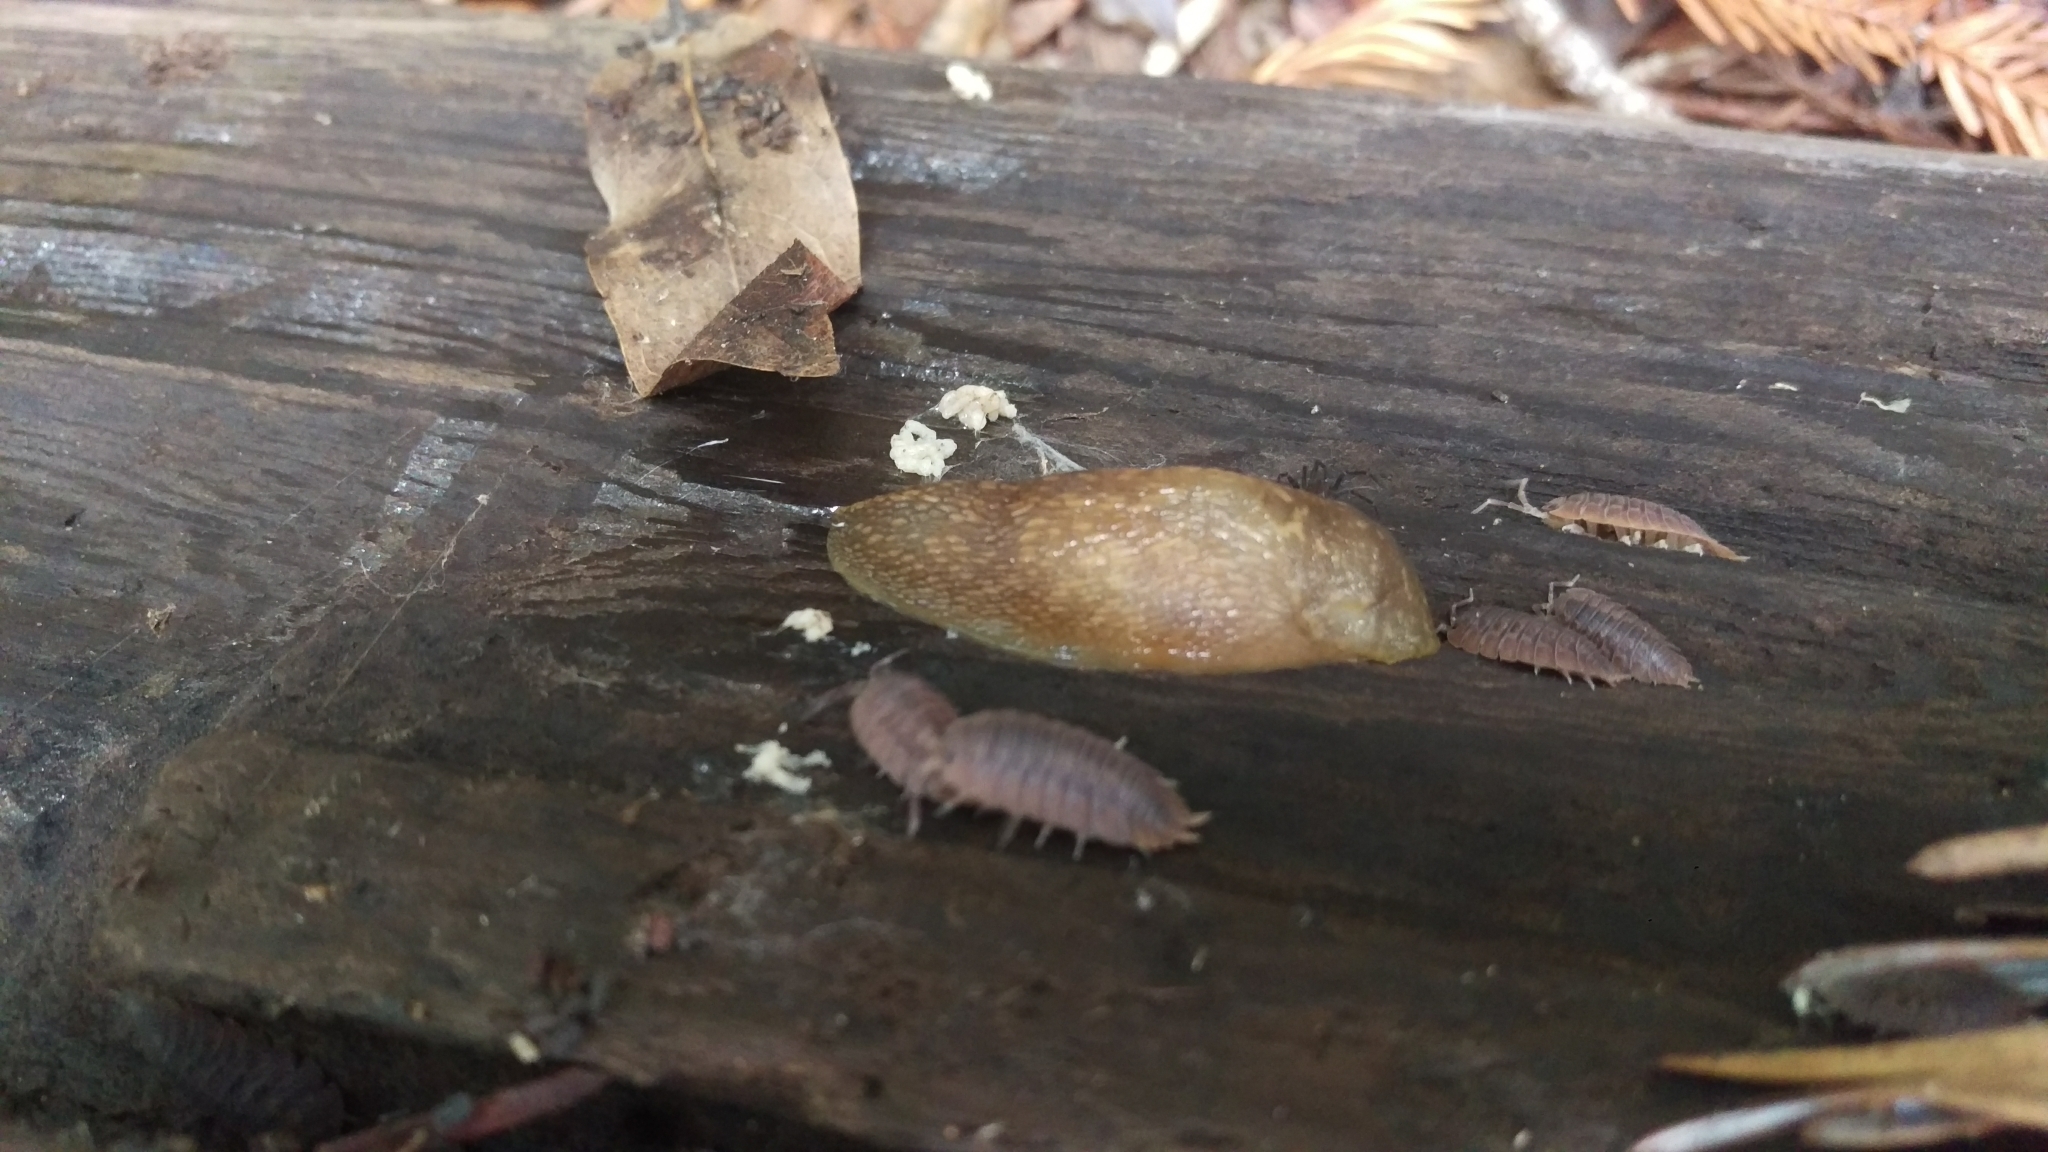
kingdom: Animalia
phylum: Mollusca
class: Gastropoda
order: Stylommatophora
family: Limacidae
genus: Limacus
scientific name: Limacus flavus
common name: Yellow gardenslug
